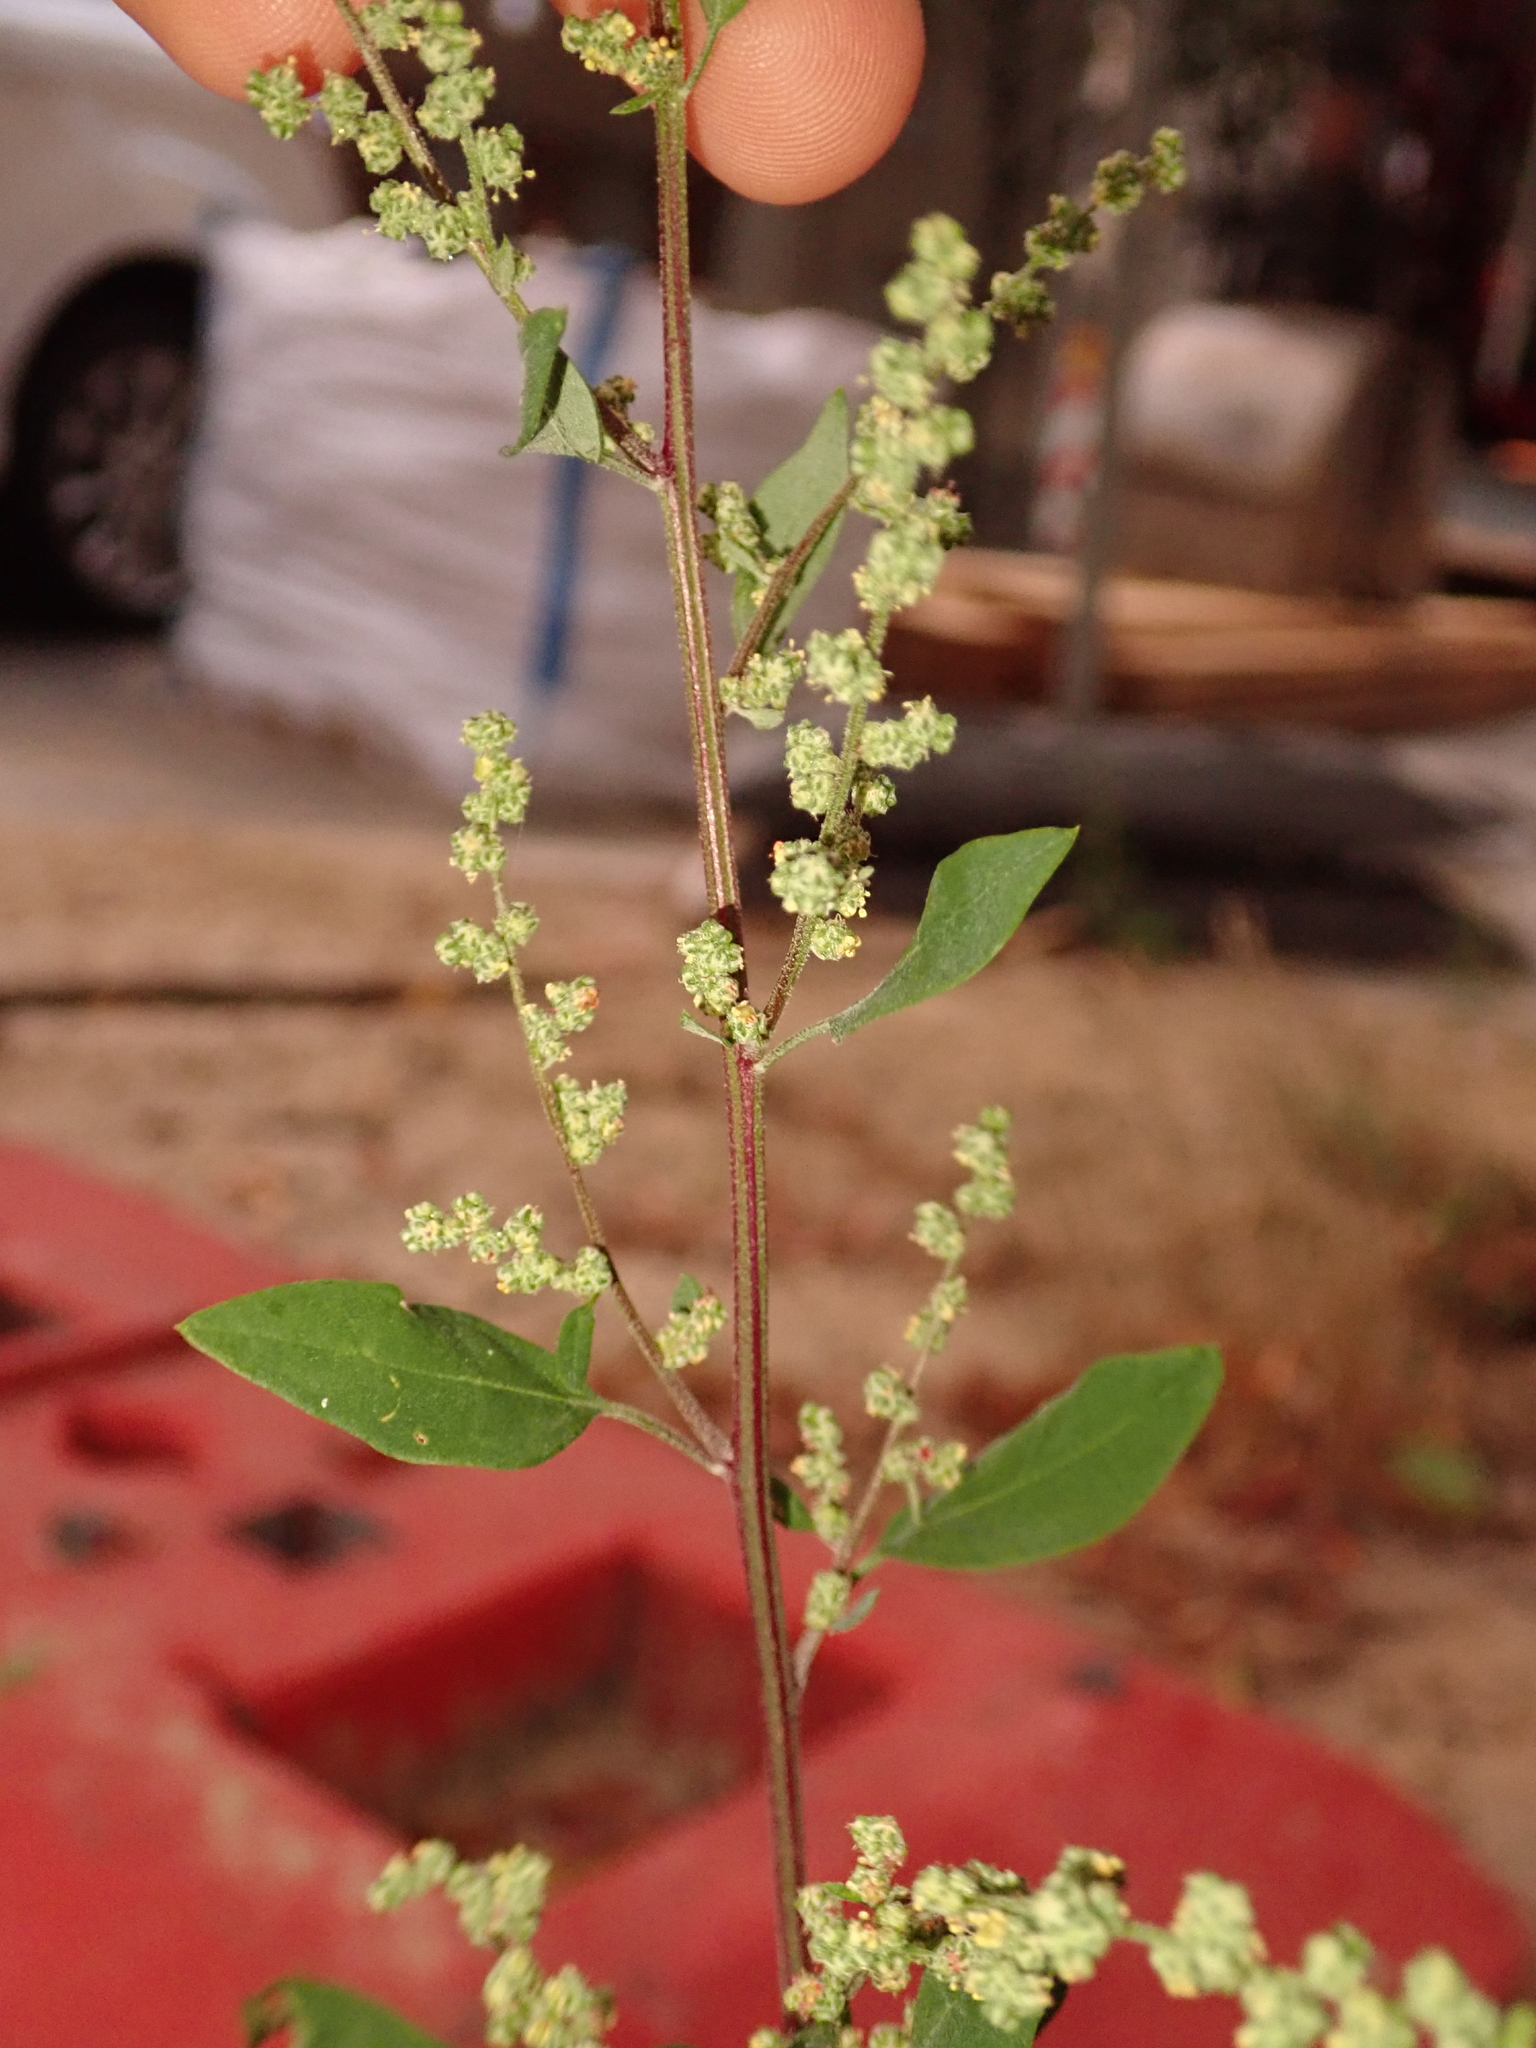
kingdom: Plantae
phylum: Tracheophyta
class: Magnoliopsida
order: Caryophyllales
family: Amaranthaceae
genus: Chenopodium
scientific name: Chenopodium album
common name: Fat-hen
